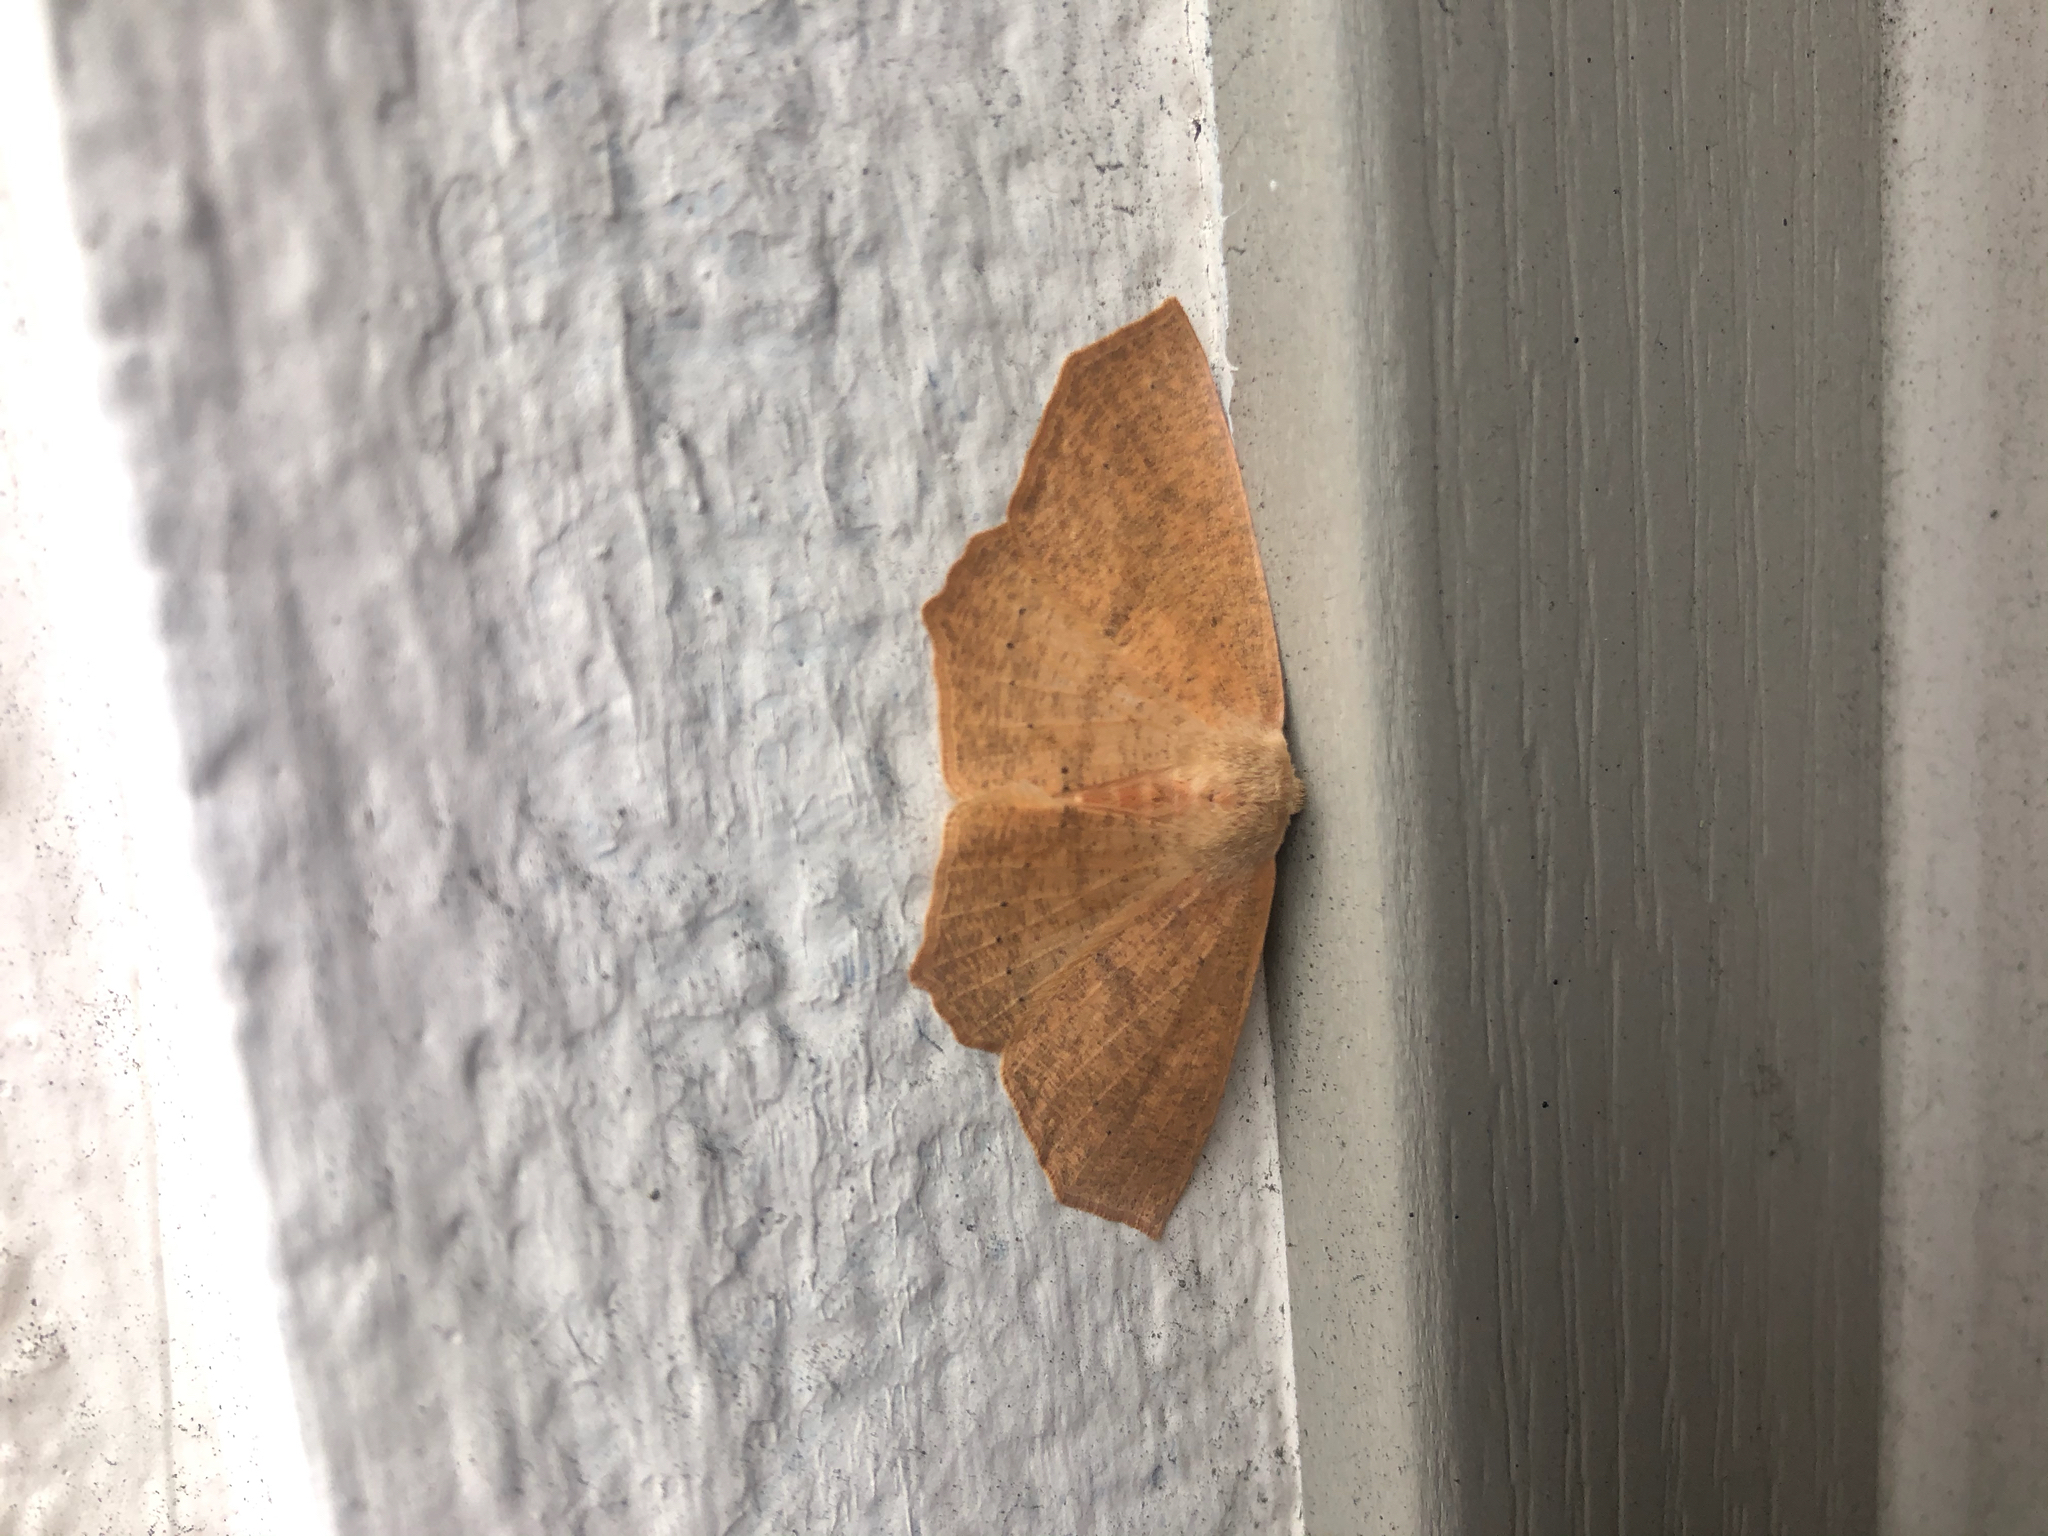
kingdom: Animalia
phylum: Arthropoda
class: Insecta
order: Lepidoptera
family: Geometridae
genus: Sabulodes
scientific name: Sabulodes aegrotata
